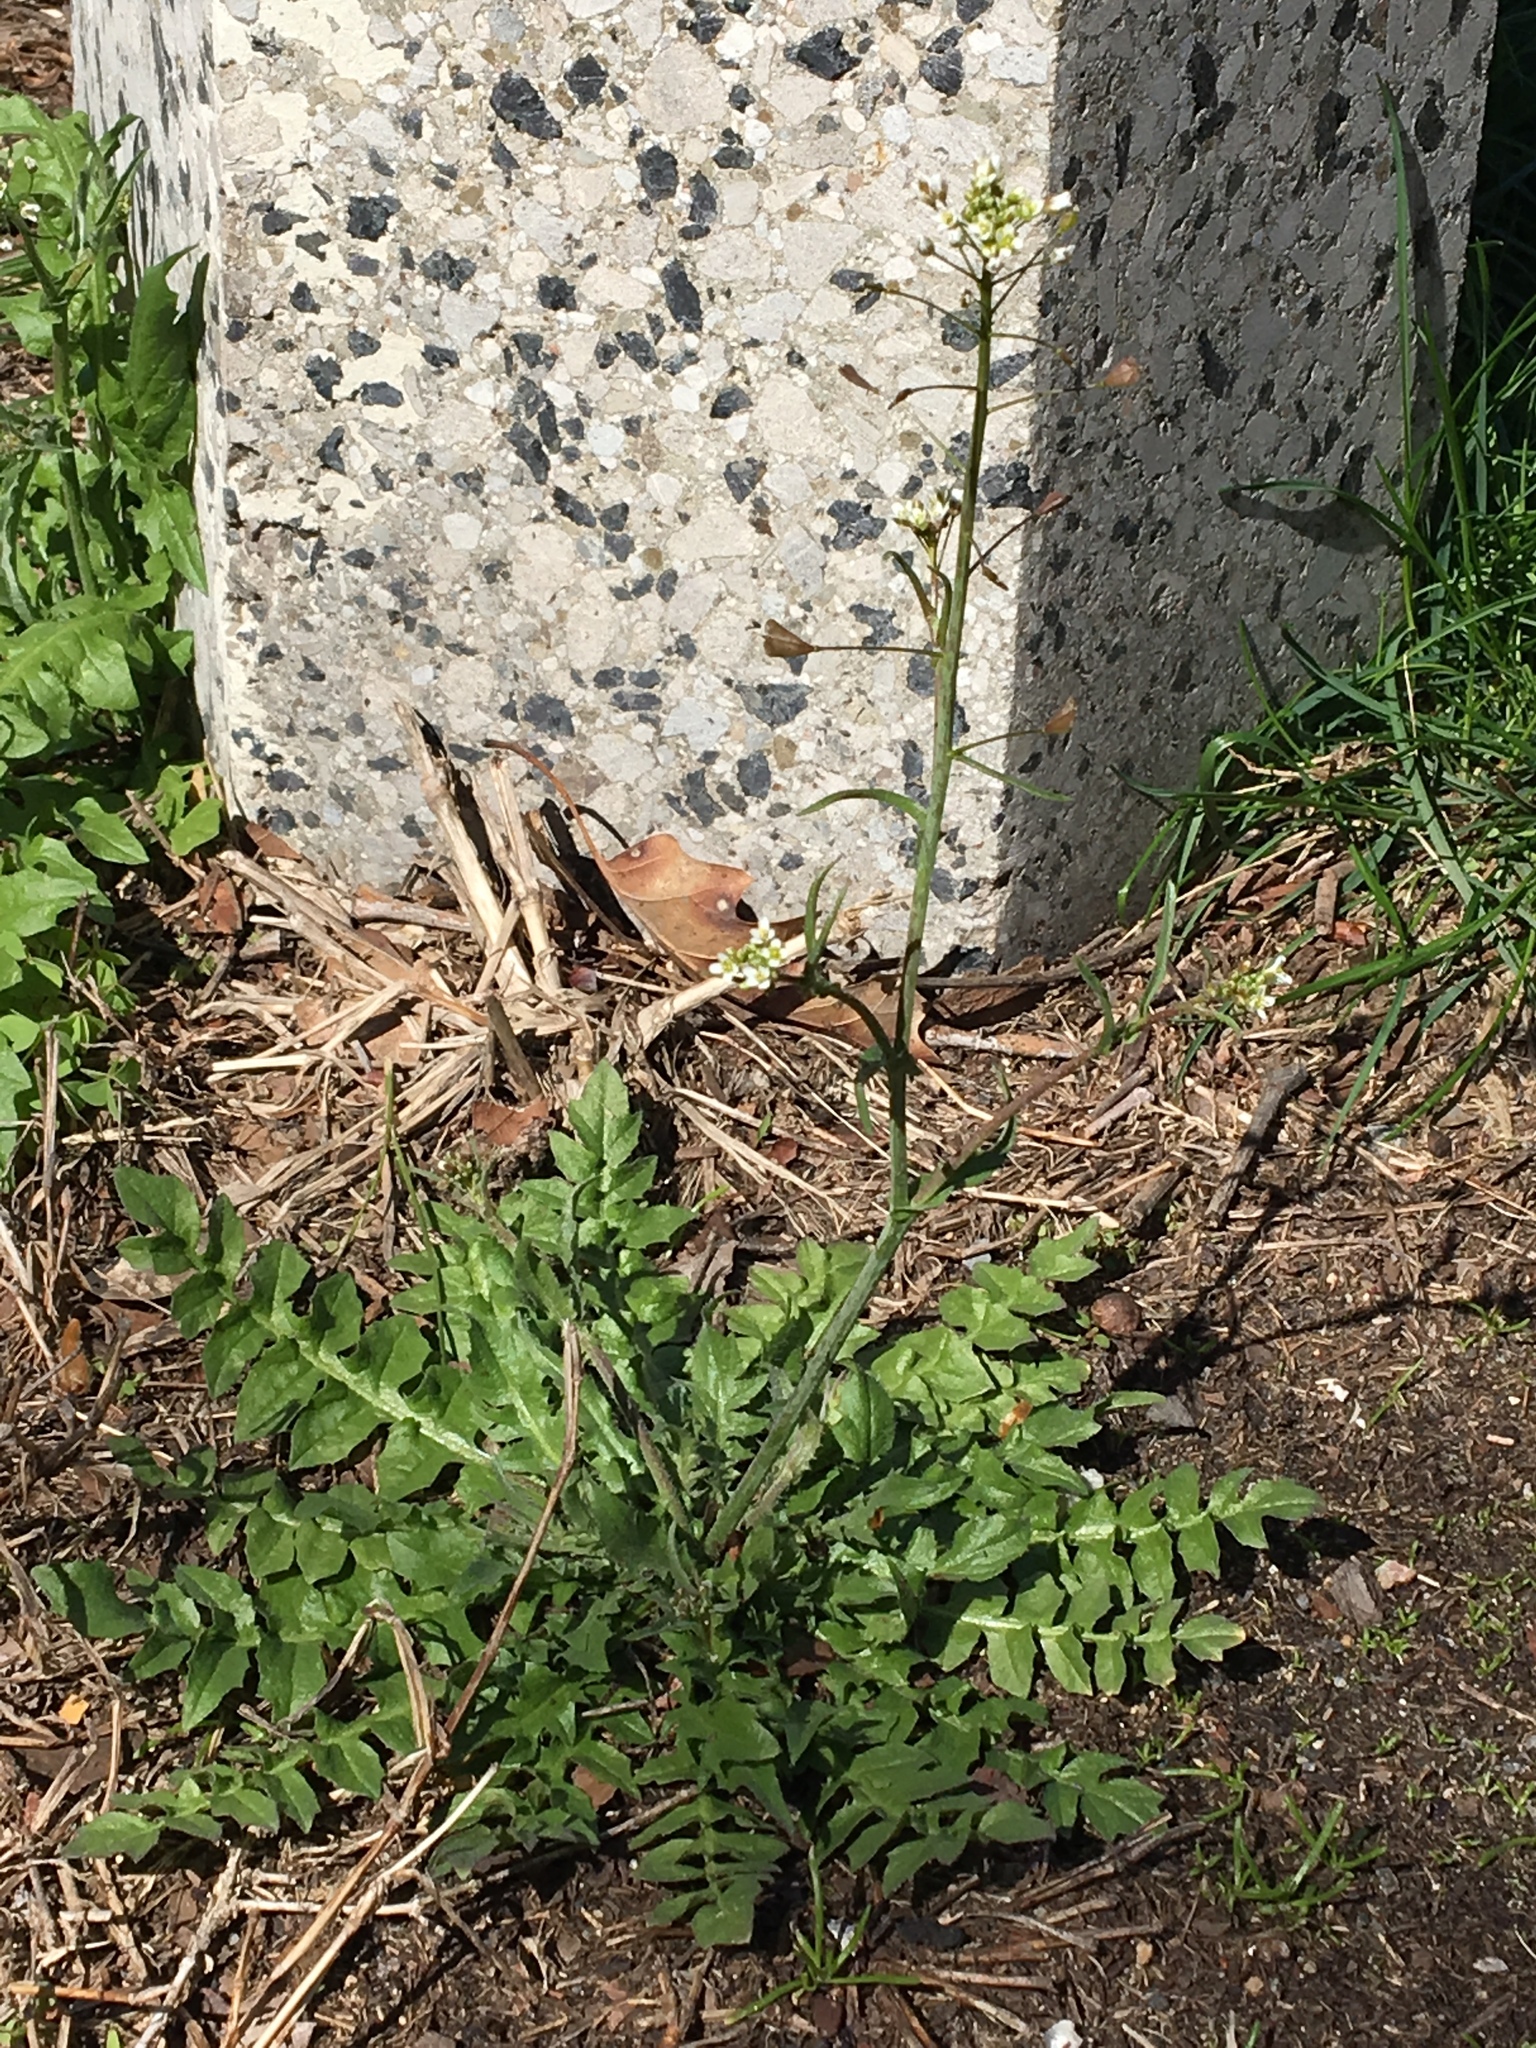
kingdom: Plantae
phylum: Tracheophyta
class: Magnoliopsida
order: Brassicales
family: Brassicaceae
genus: Capsella
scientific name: Capsella bursa-pastoris
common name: Shepherd's purse
